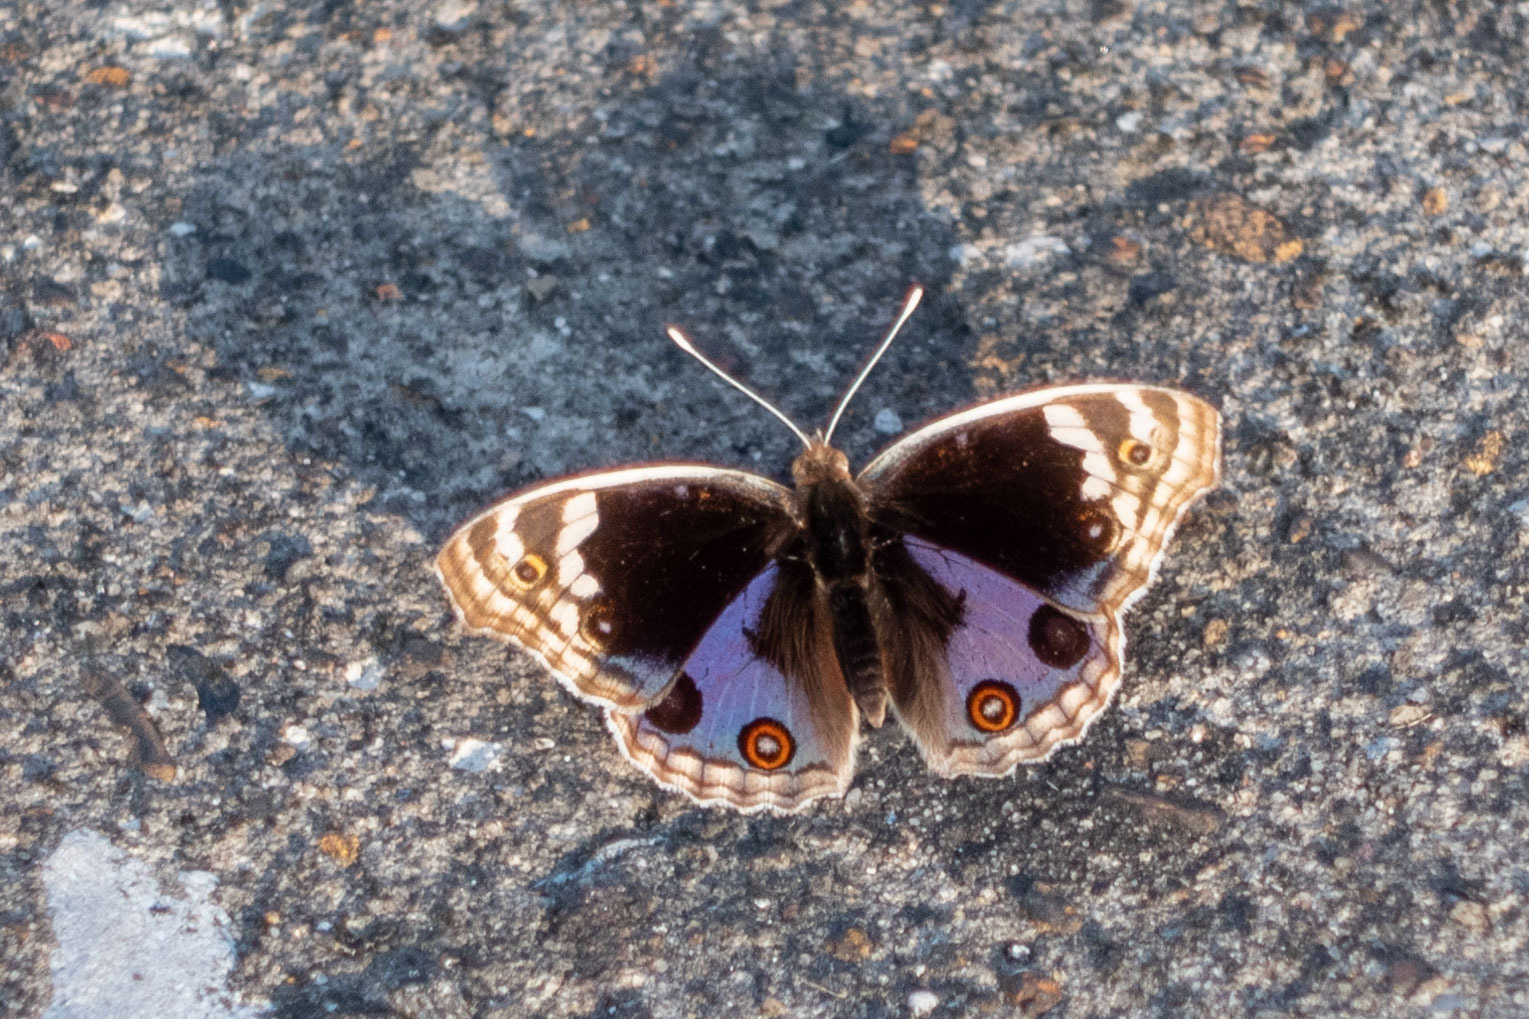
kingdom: Animalia
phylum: Arthropoda
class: Insecta
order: Lepidoptera
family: Nymphalidae
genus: Junonia
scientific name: Junonia orithya
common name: Blue pansy
